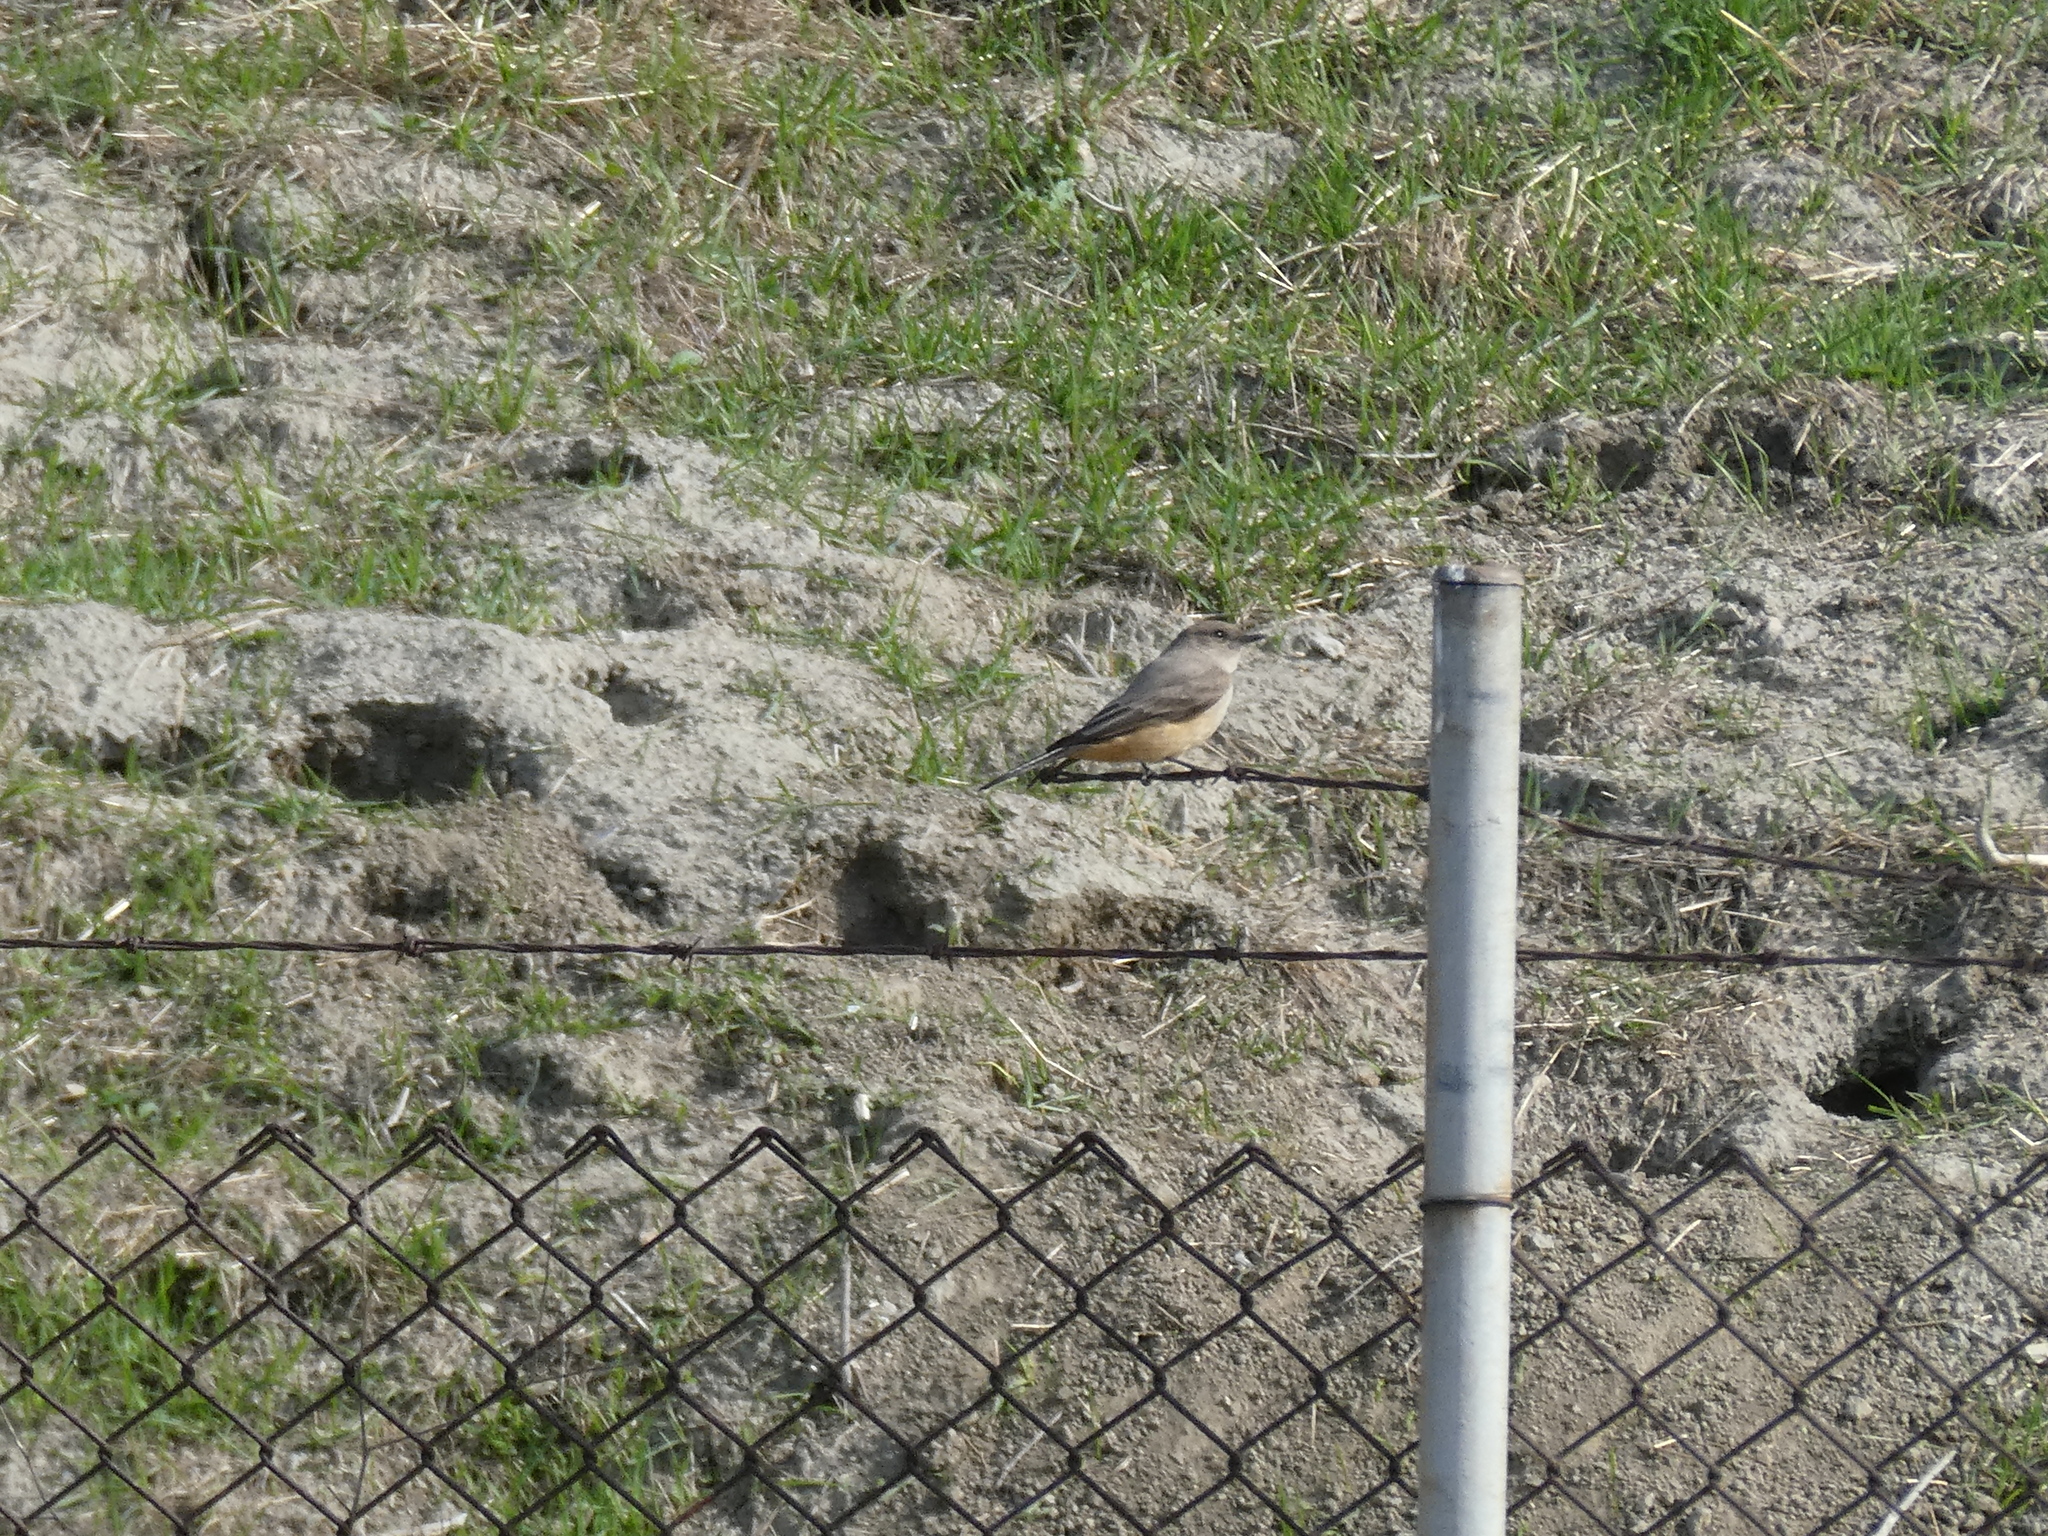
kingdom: Animalia
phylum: Chordata
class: Aves
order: Passeriformes
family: Tyrannidae
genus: Sayornis
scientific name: Sayornis saya
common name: Say's phoebe
